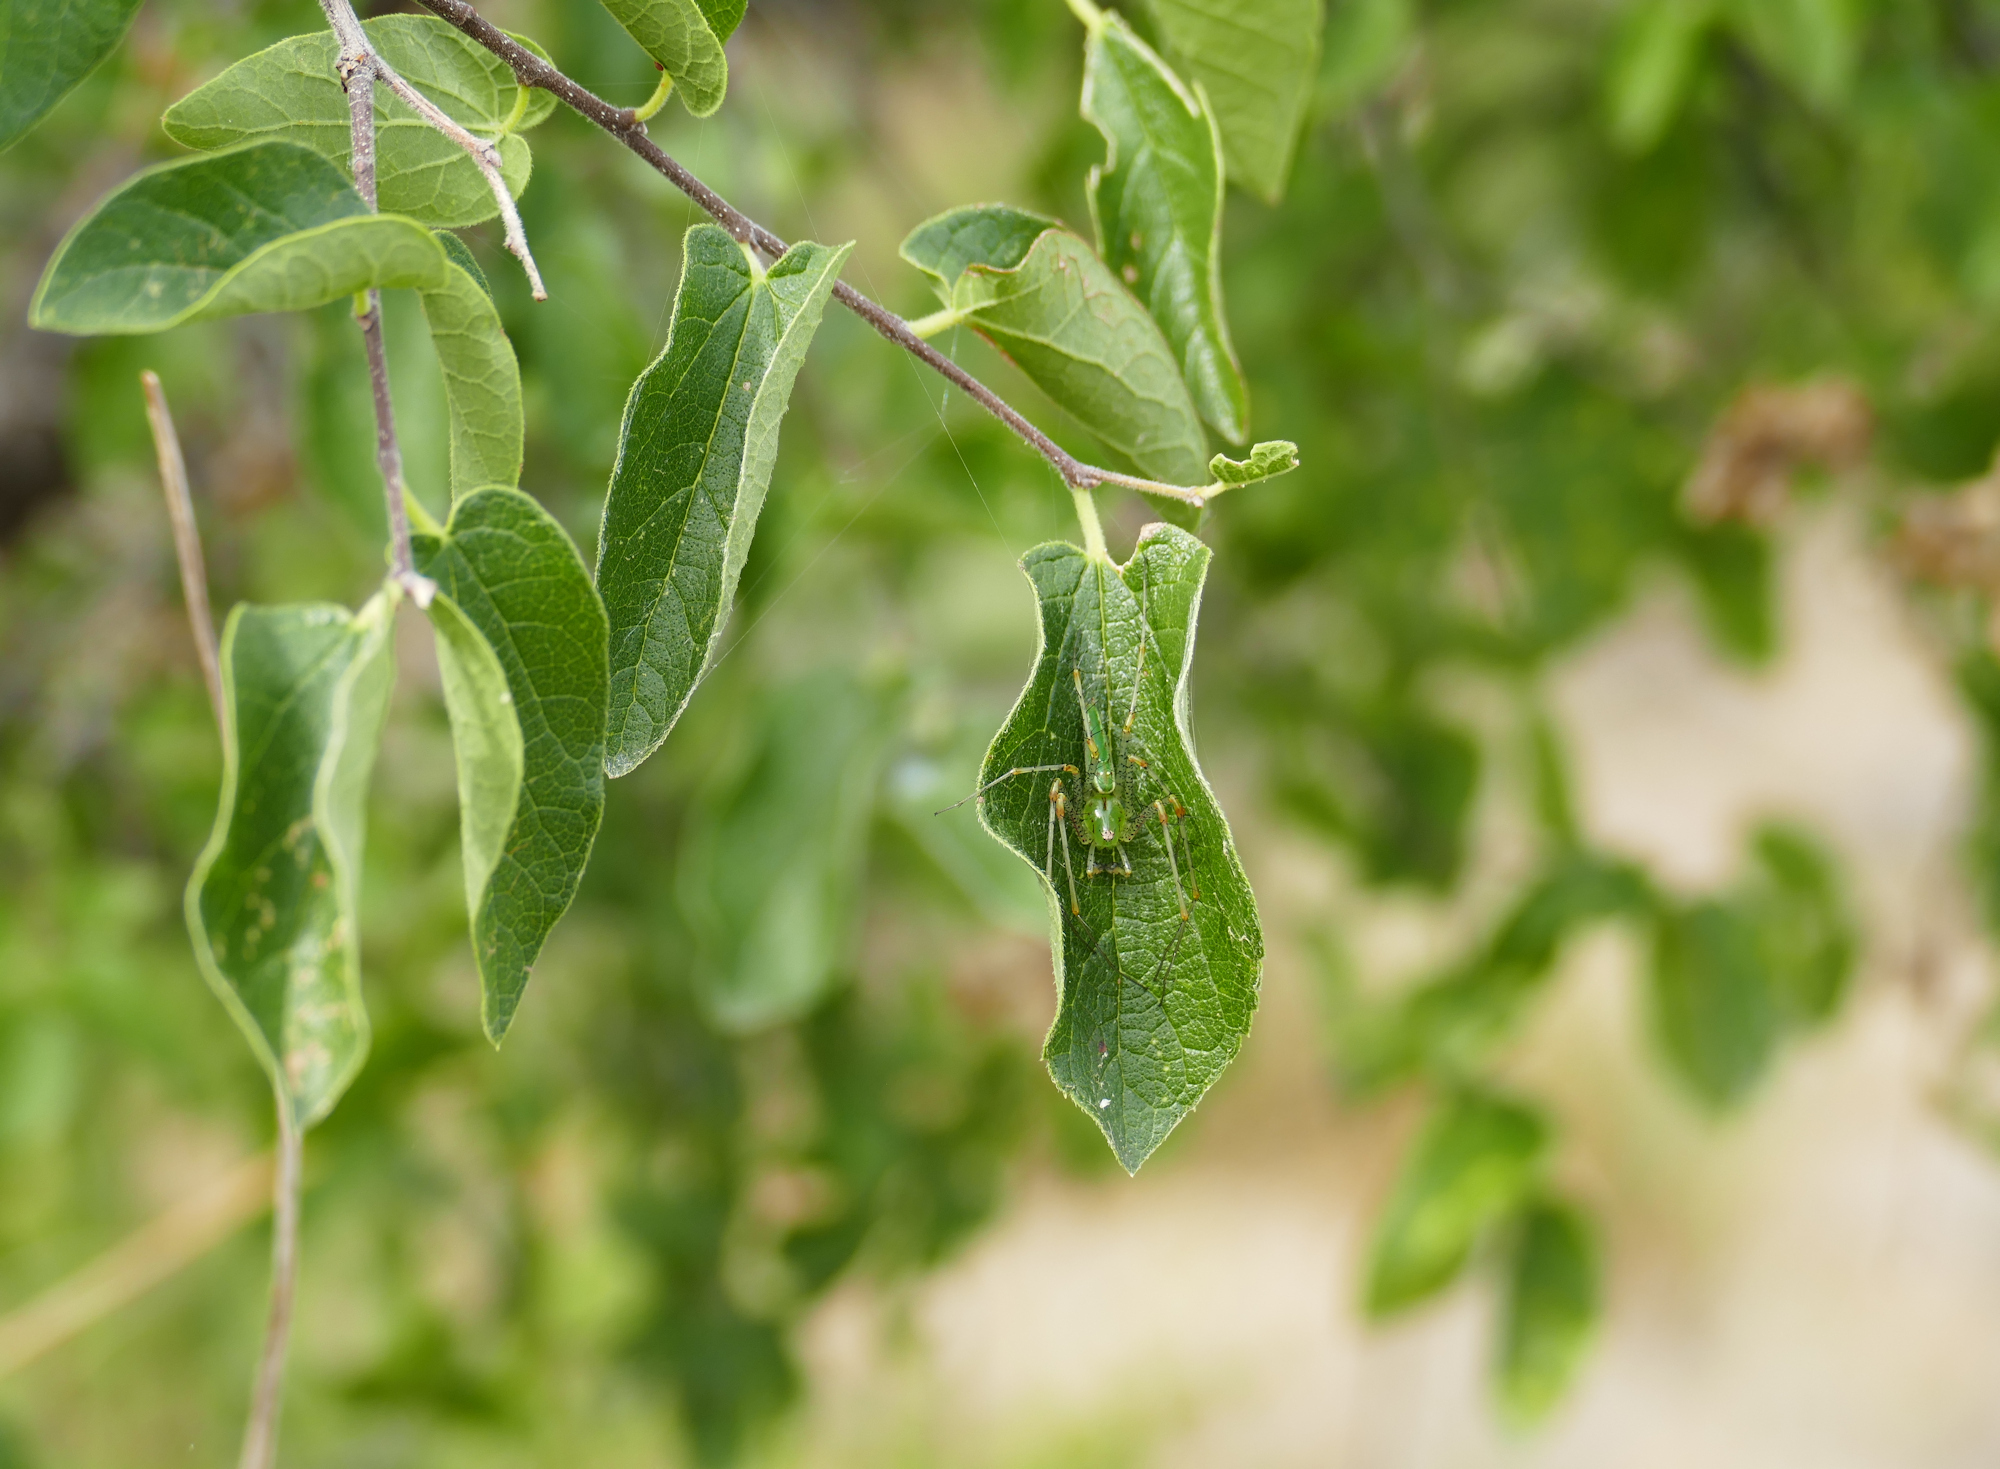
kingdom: Animalia
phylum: Arthropoda
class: Arachnida
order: Araneae
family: Oxyopidae
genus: Peucetia
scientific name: Peucetia viridans
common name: Lynx spiders
